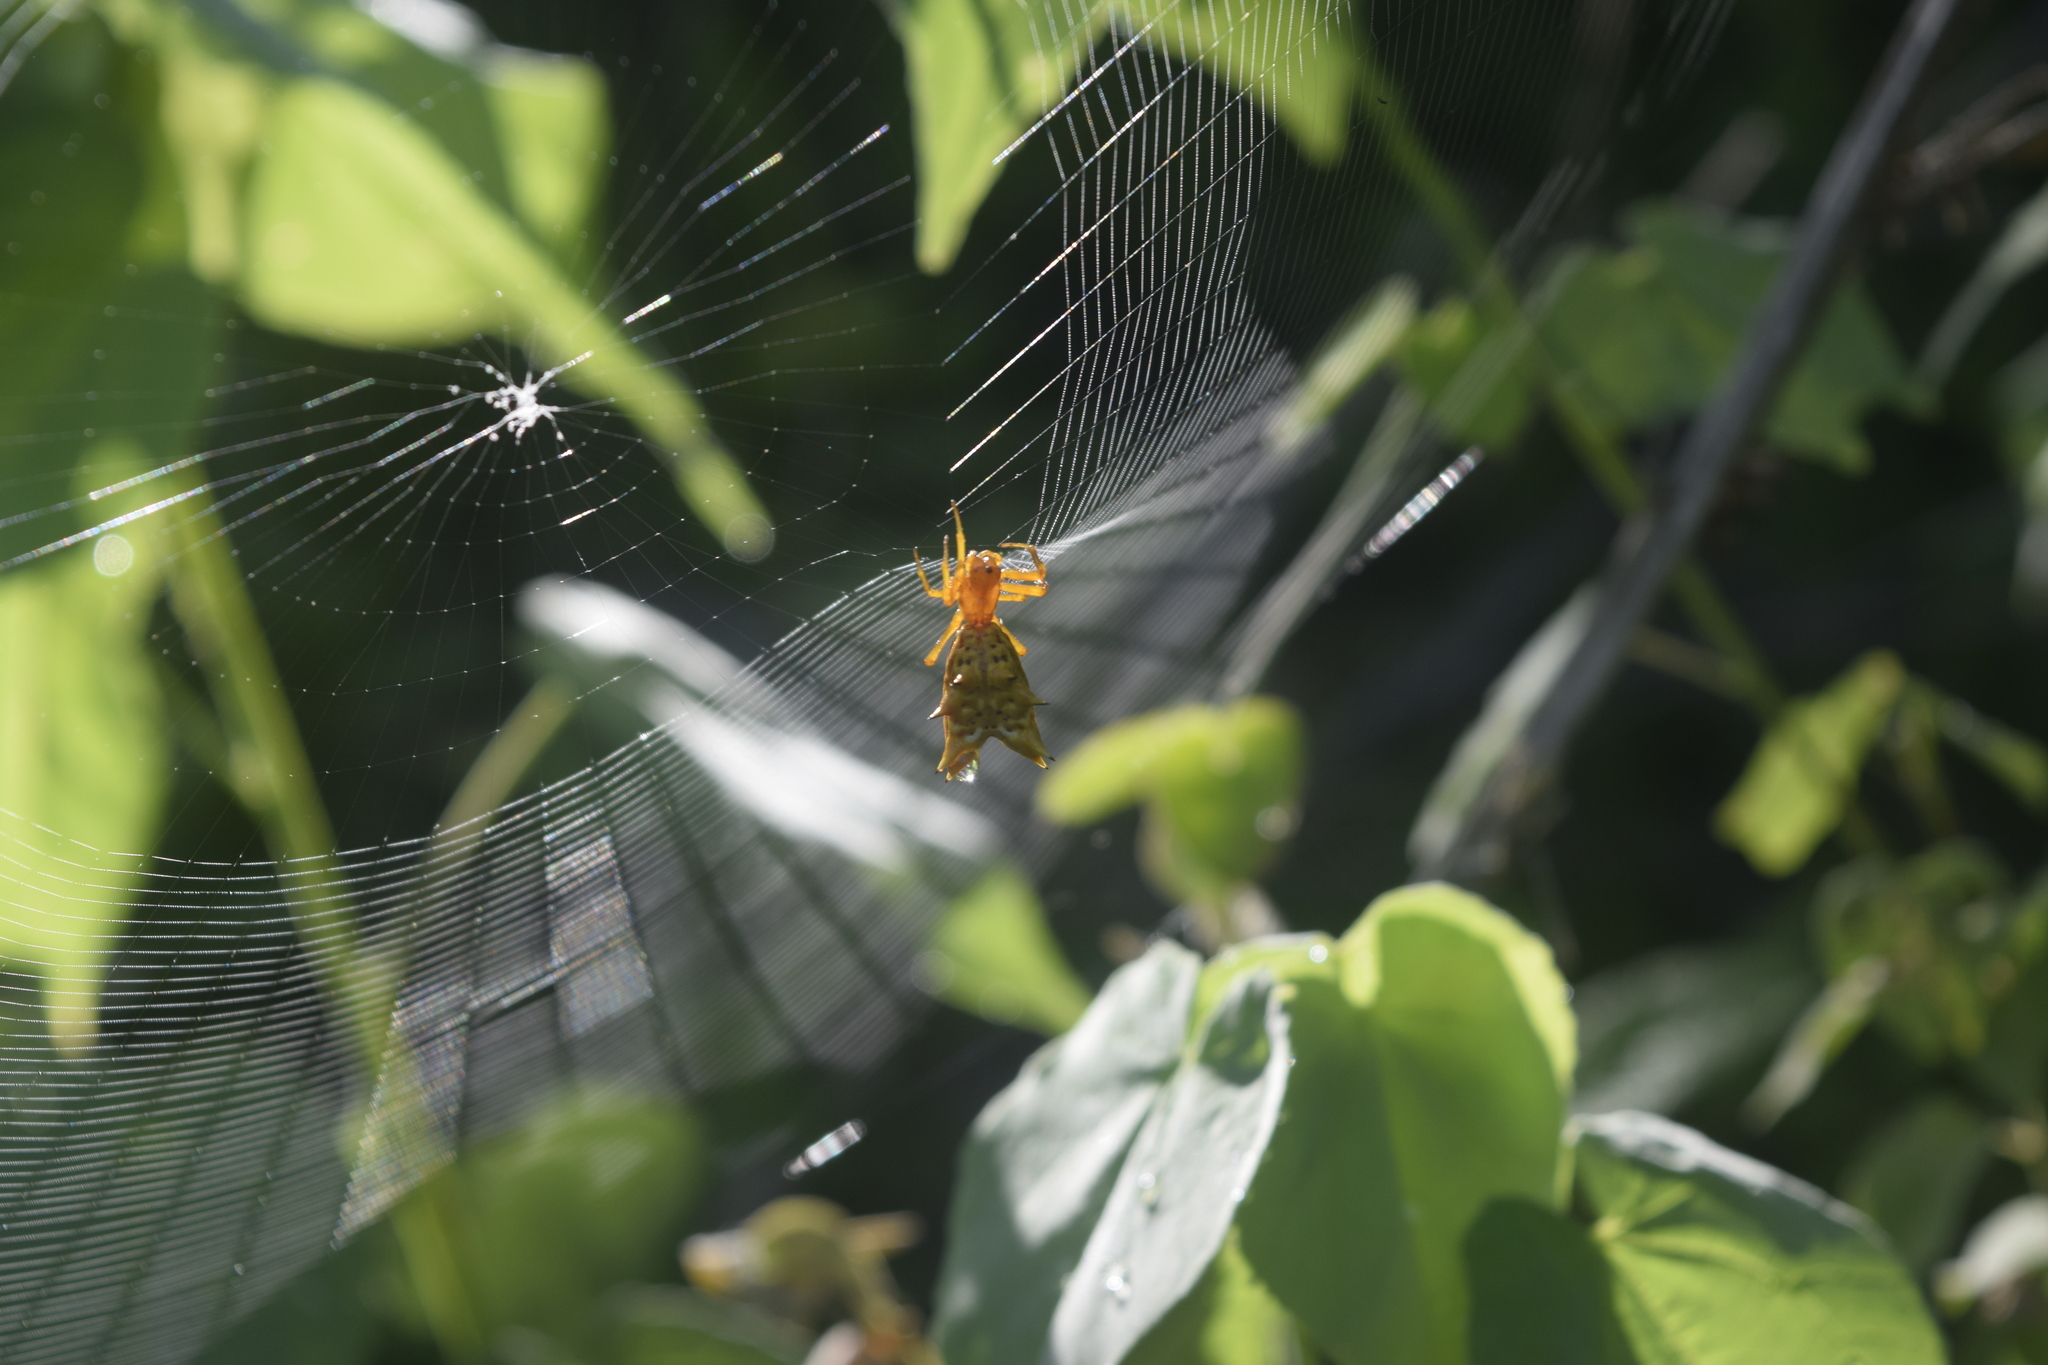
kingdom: Animalia
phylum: Arthropoda
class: Arachnida
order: Araneae
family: Araneidae
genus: Micrathena
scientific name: Micrathena gracilis
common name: Orb weavers
